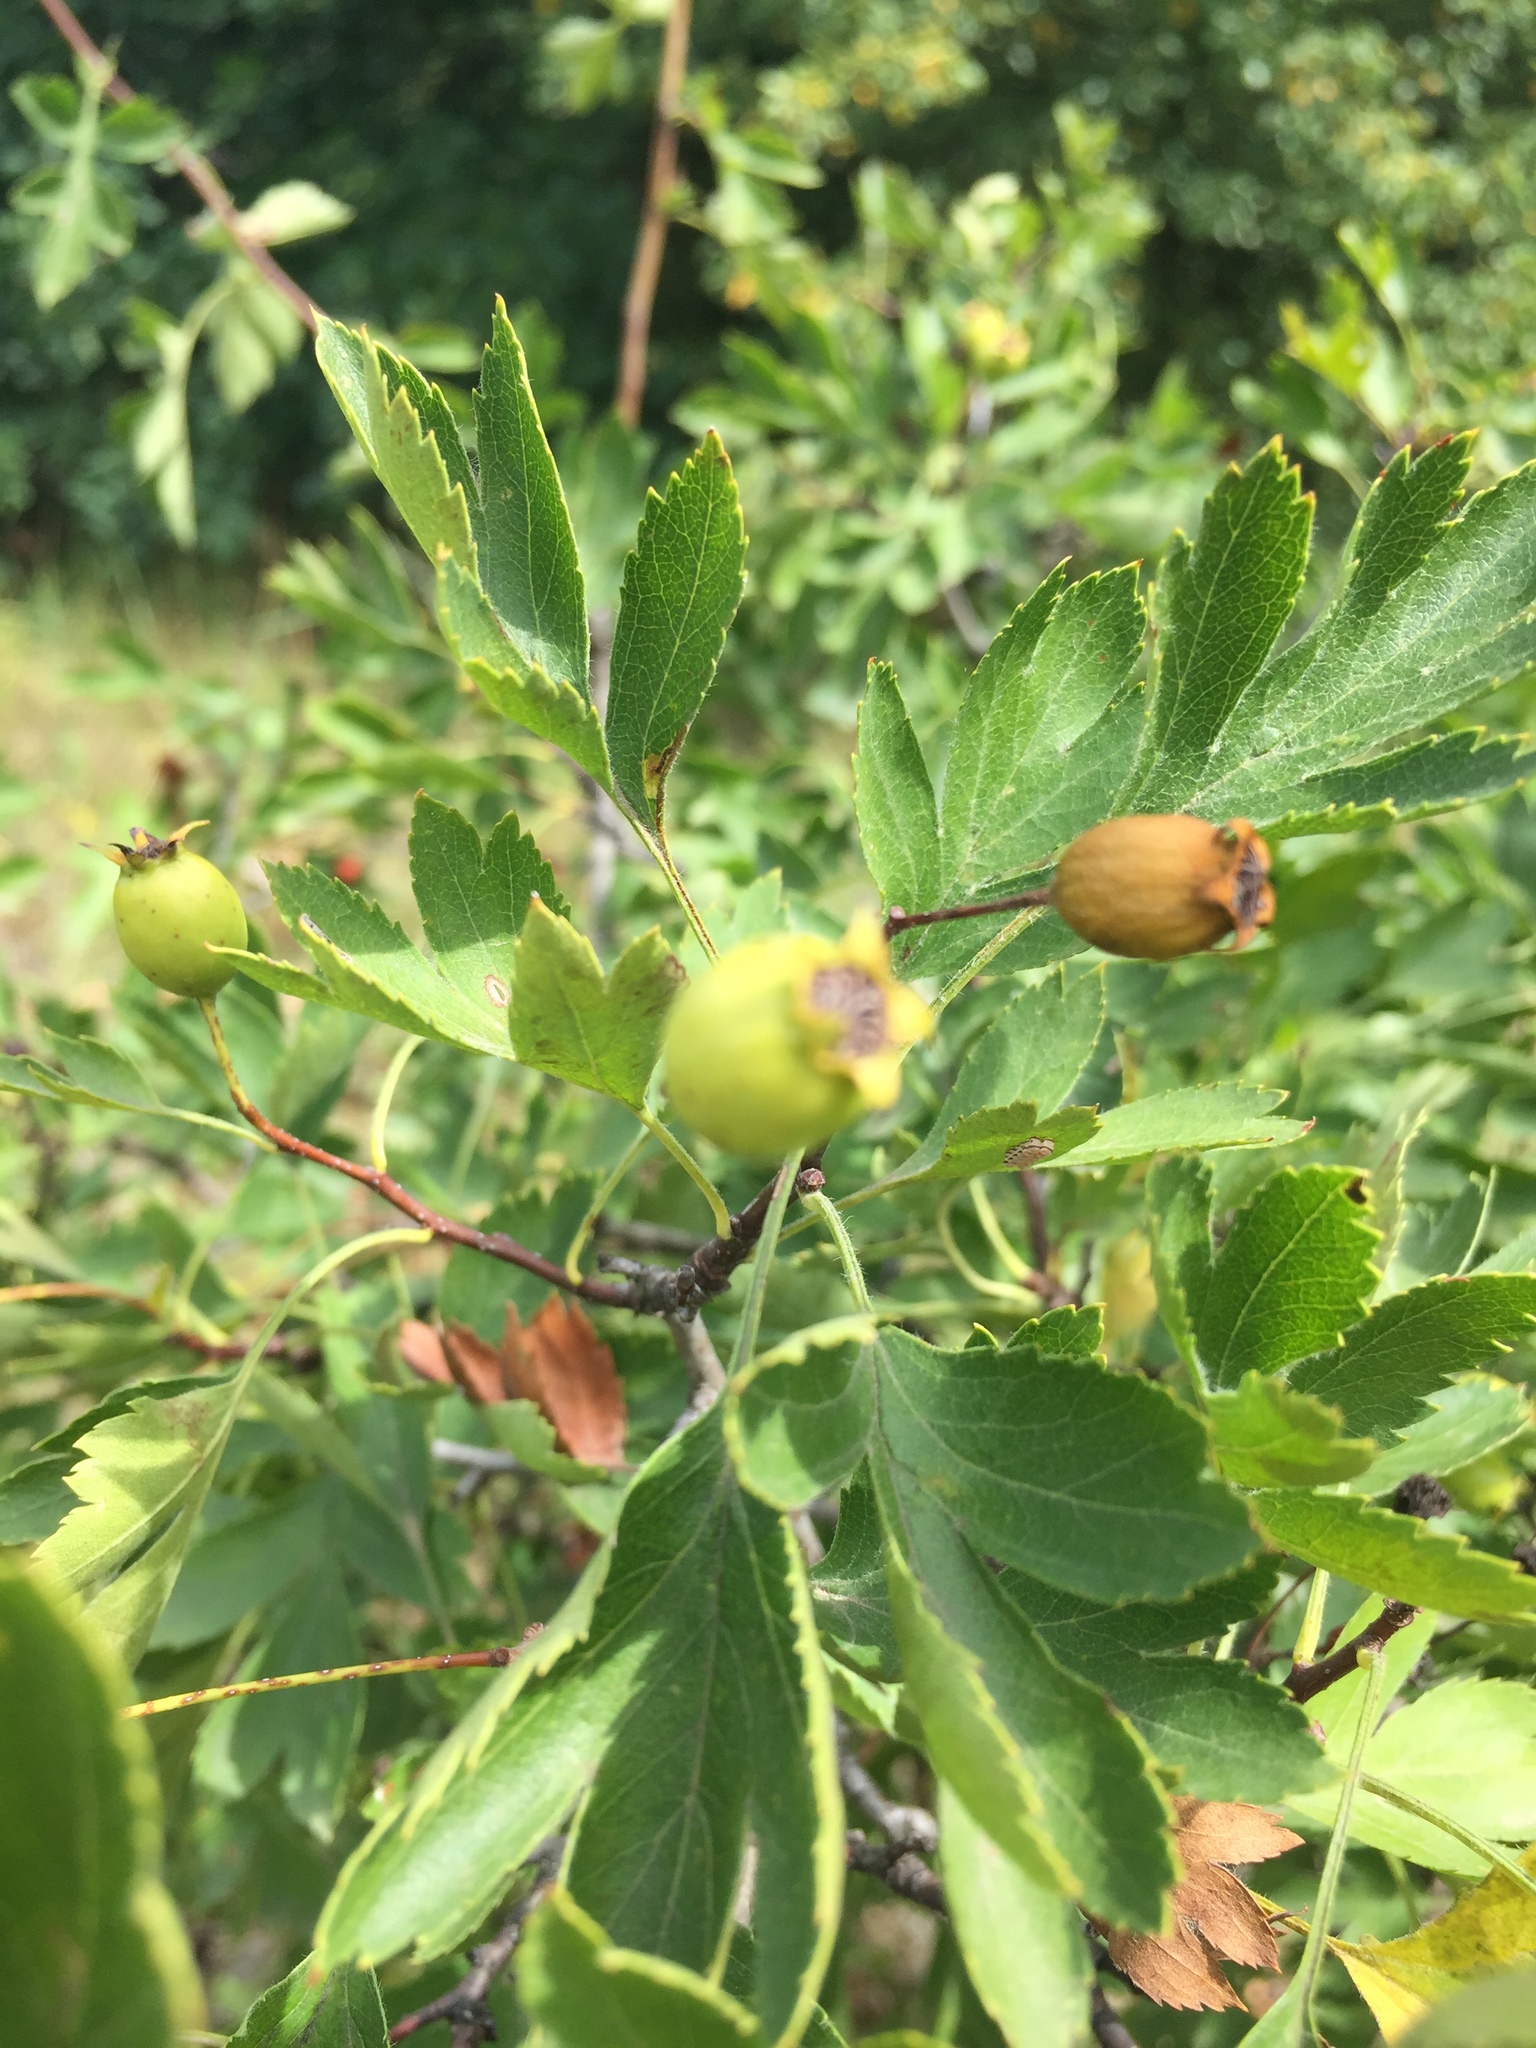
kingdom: Plantae
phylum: Tracheophyta
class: Magnoliopsida
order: Rosales
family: Rosaceae
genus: Crataegus
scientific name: Crataegus monogyna
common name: Hawthorn
